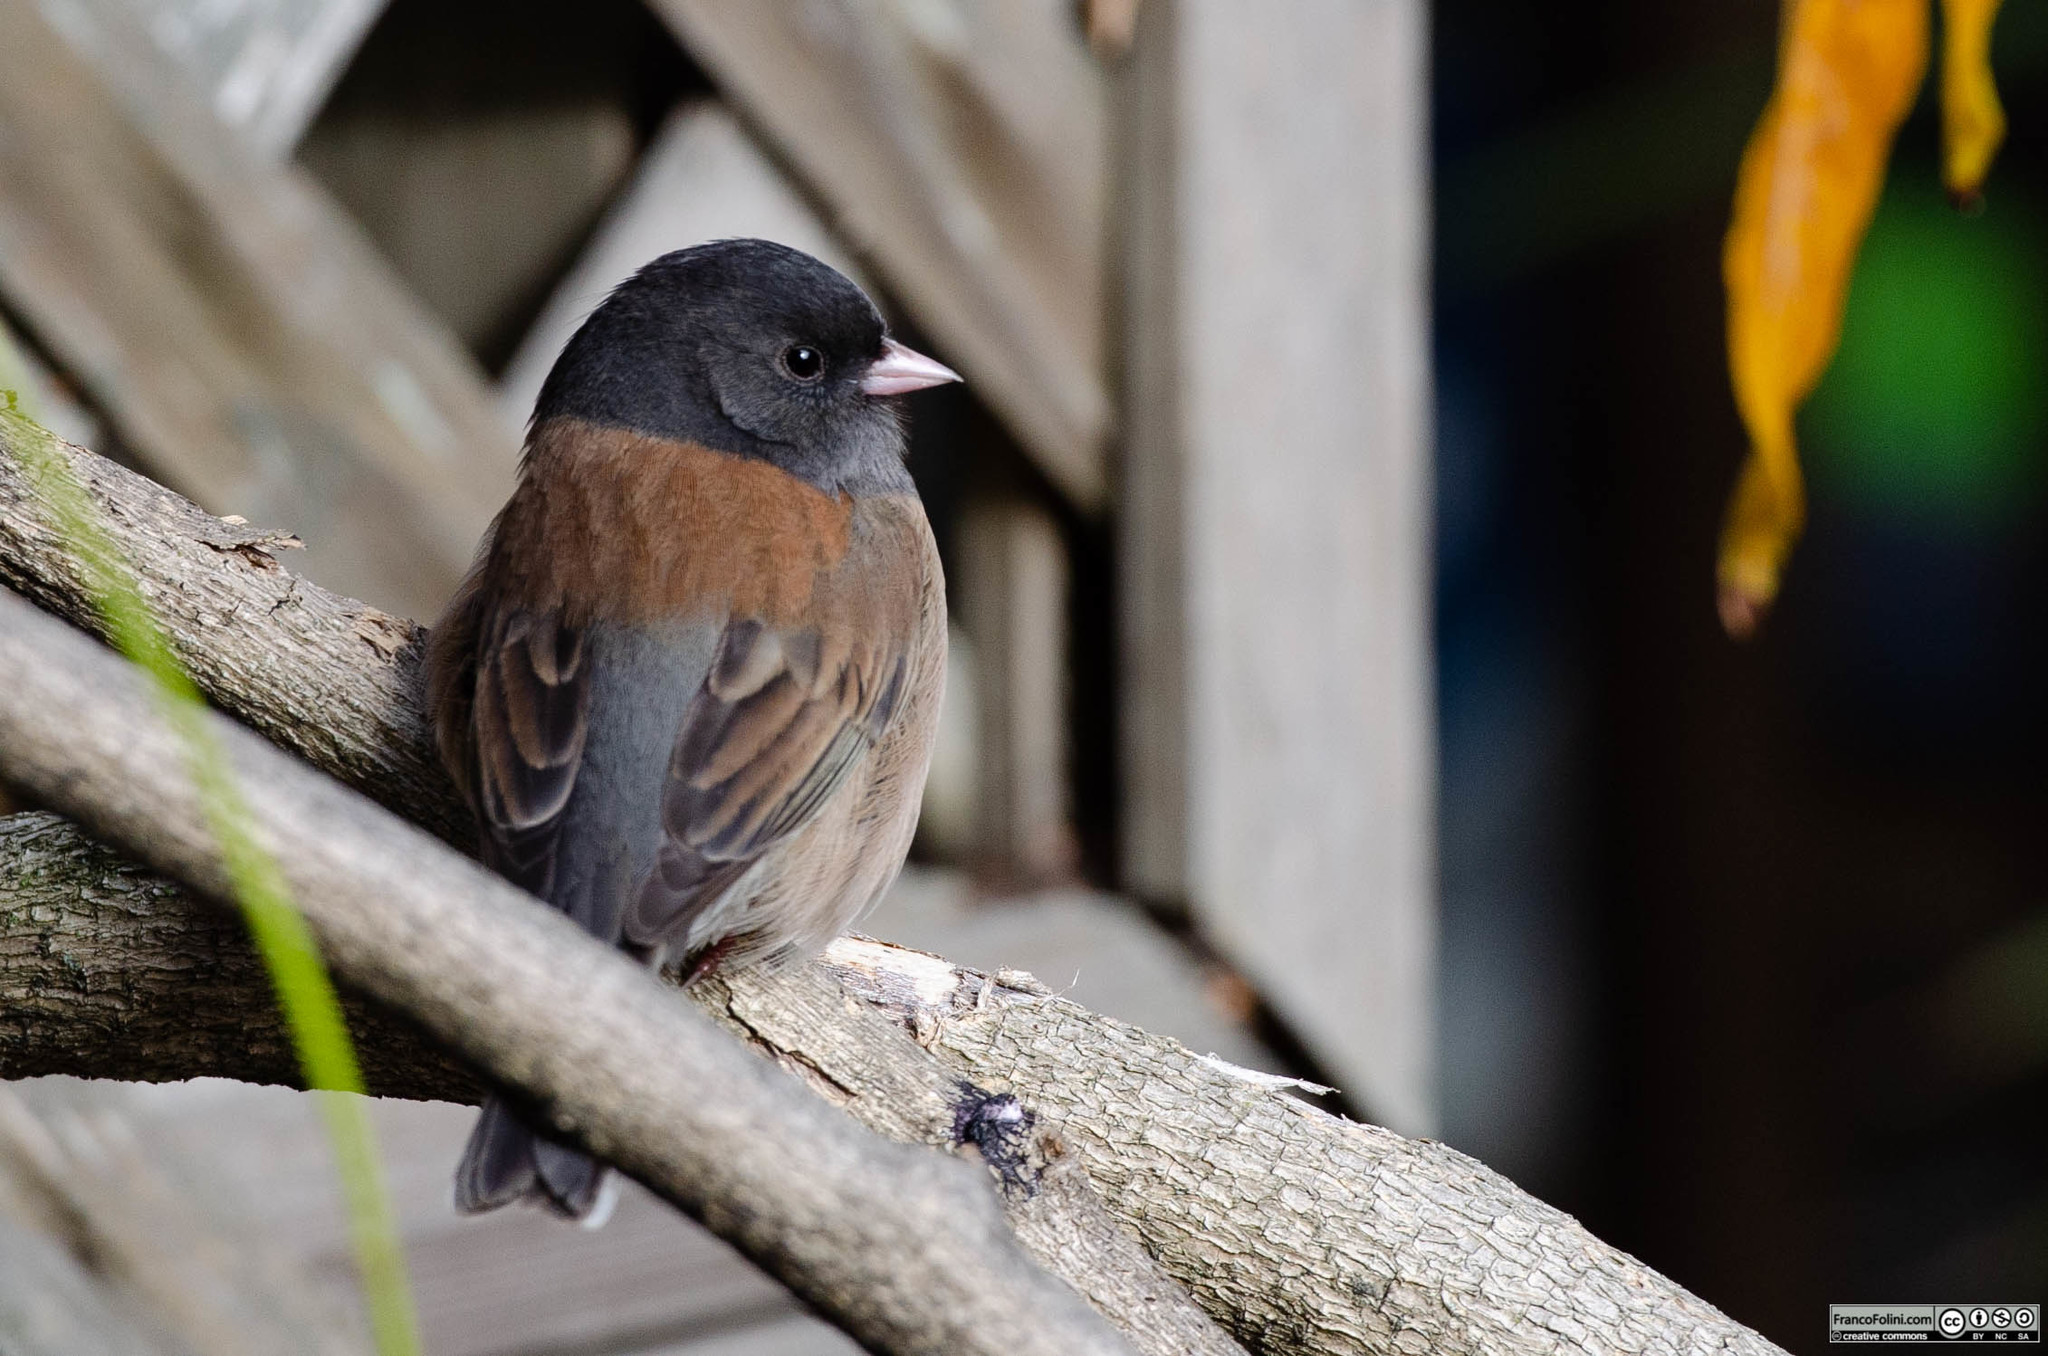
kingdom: Animalia
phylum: Chordata
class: Aves
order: Passeriformes
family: Passerellidae
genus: Junco
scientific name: Junco hyemalis
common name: Dark-eyed junco
